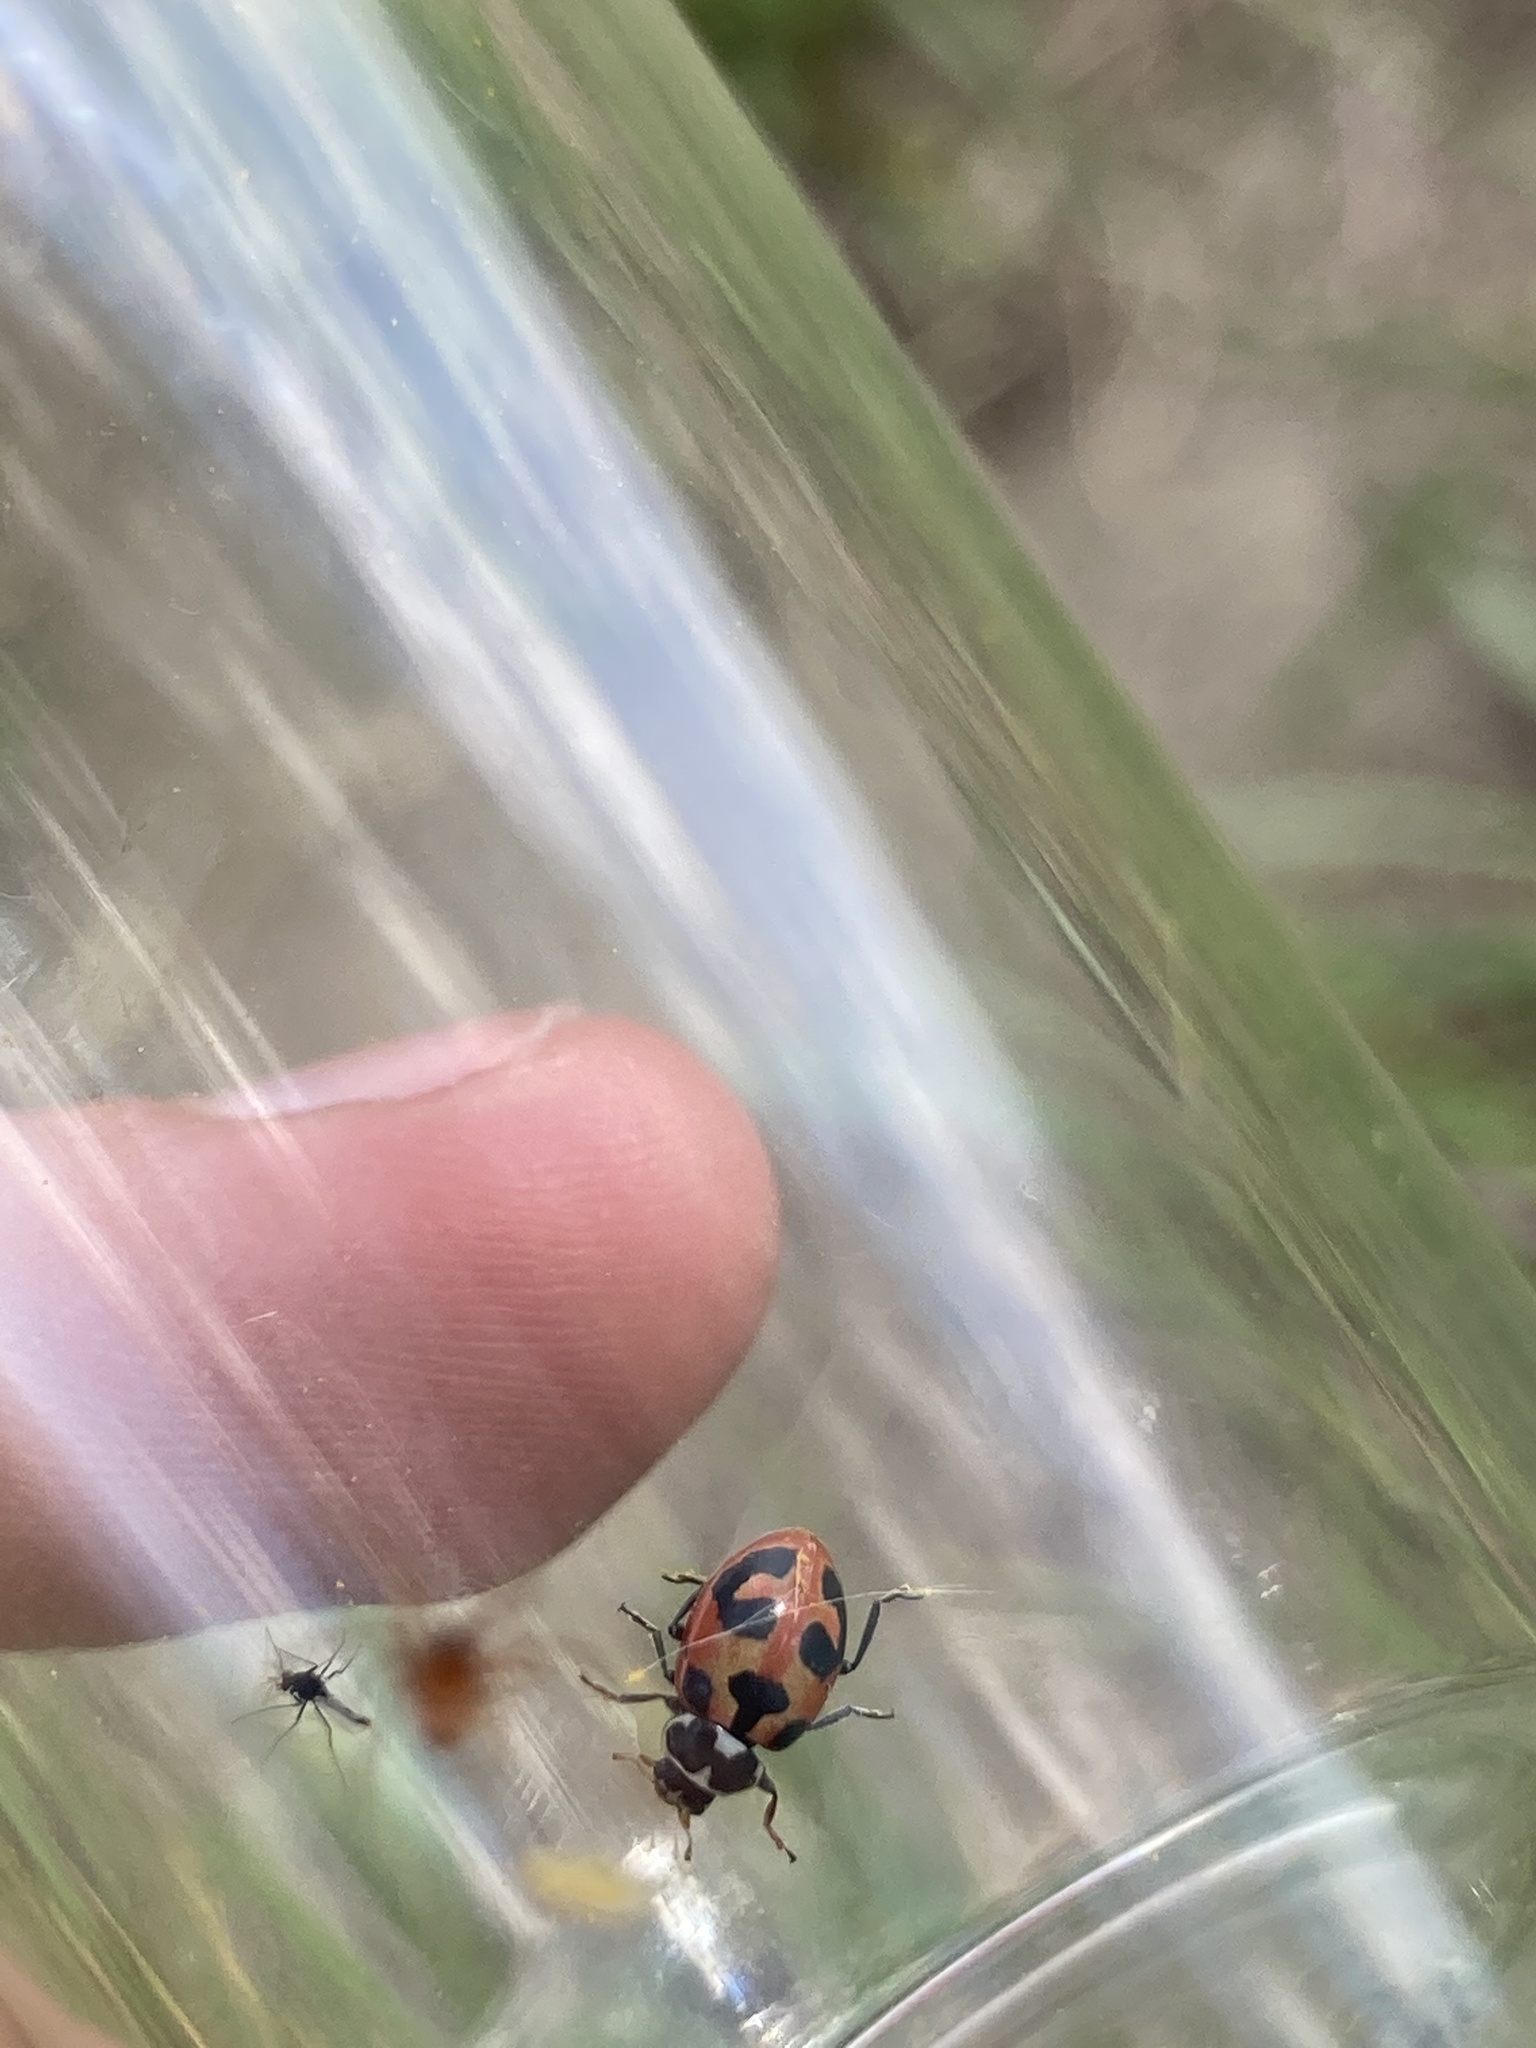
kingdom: Animalia
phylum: Arthropoda
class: Insecta
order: Coleoptera
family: Coccinellidae
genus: Hippodamia
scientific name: Hippodamia parenthesis
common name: Parenthesis lady beetle
